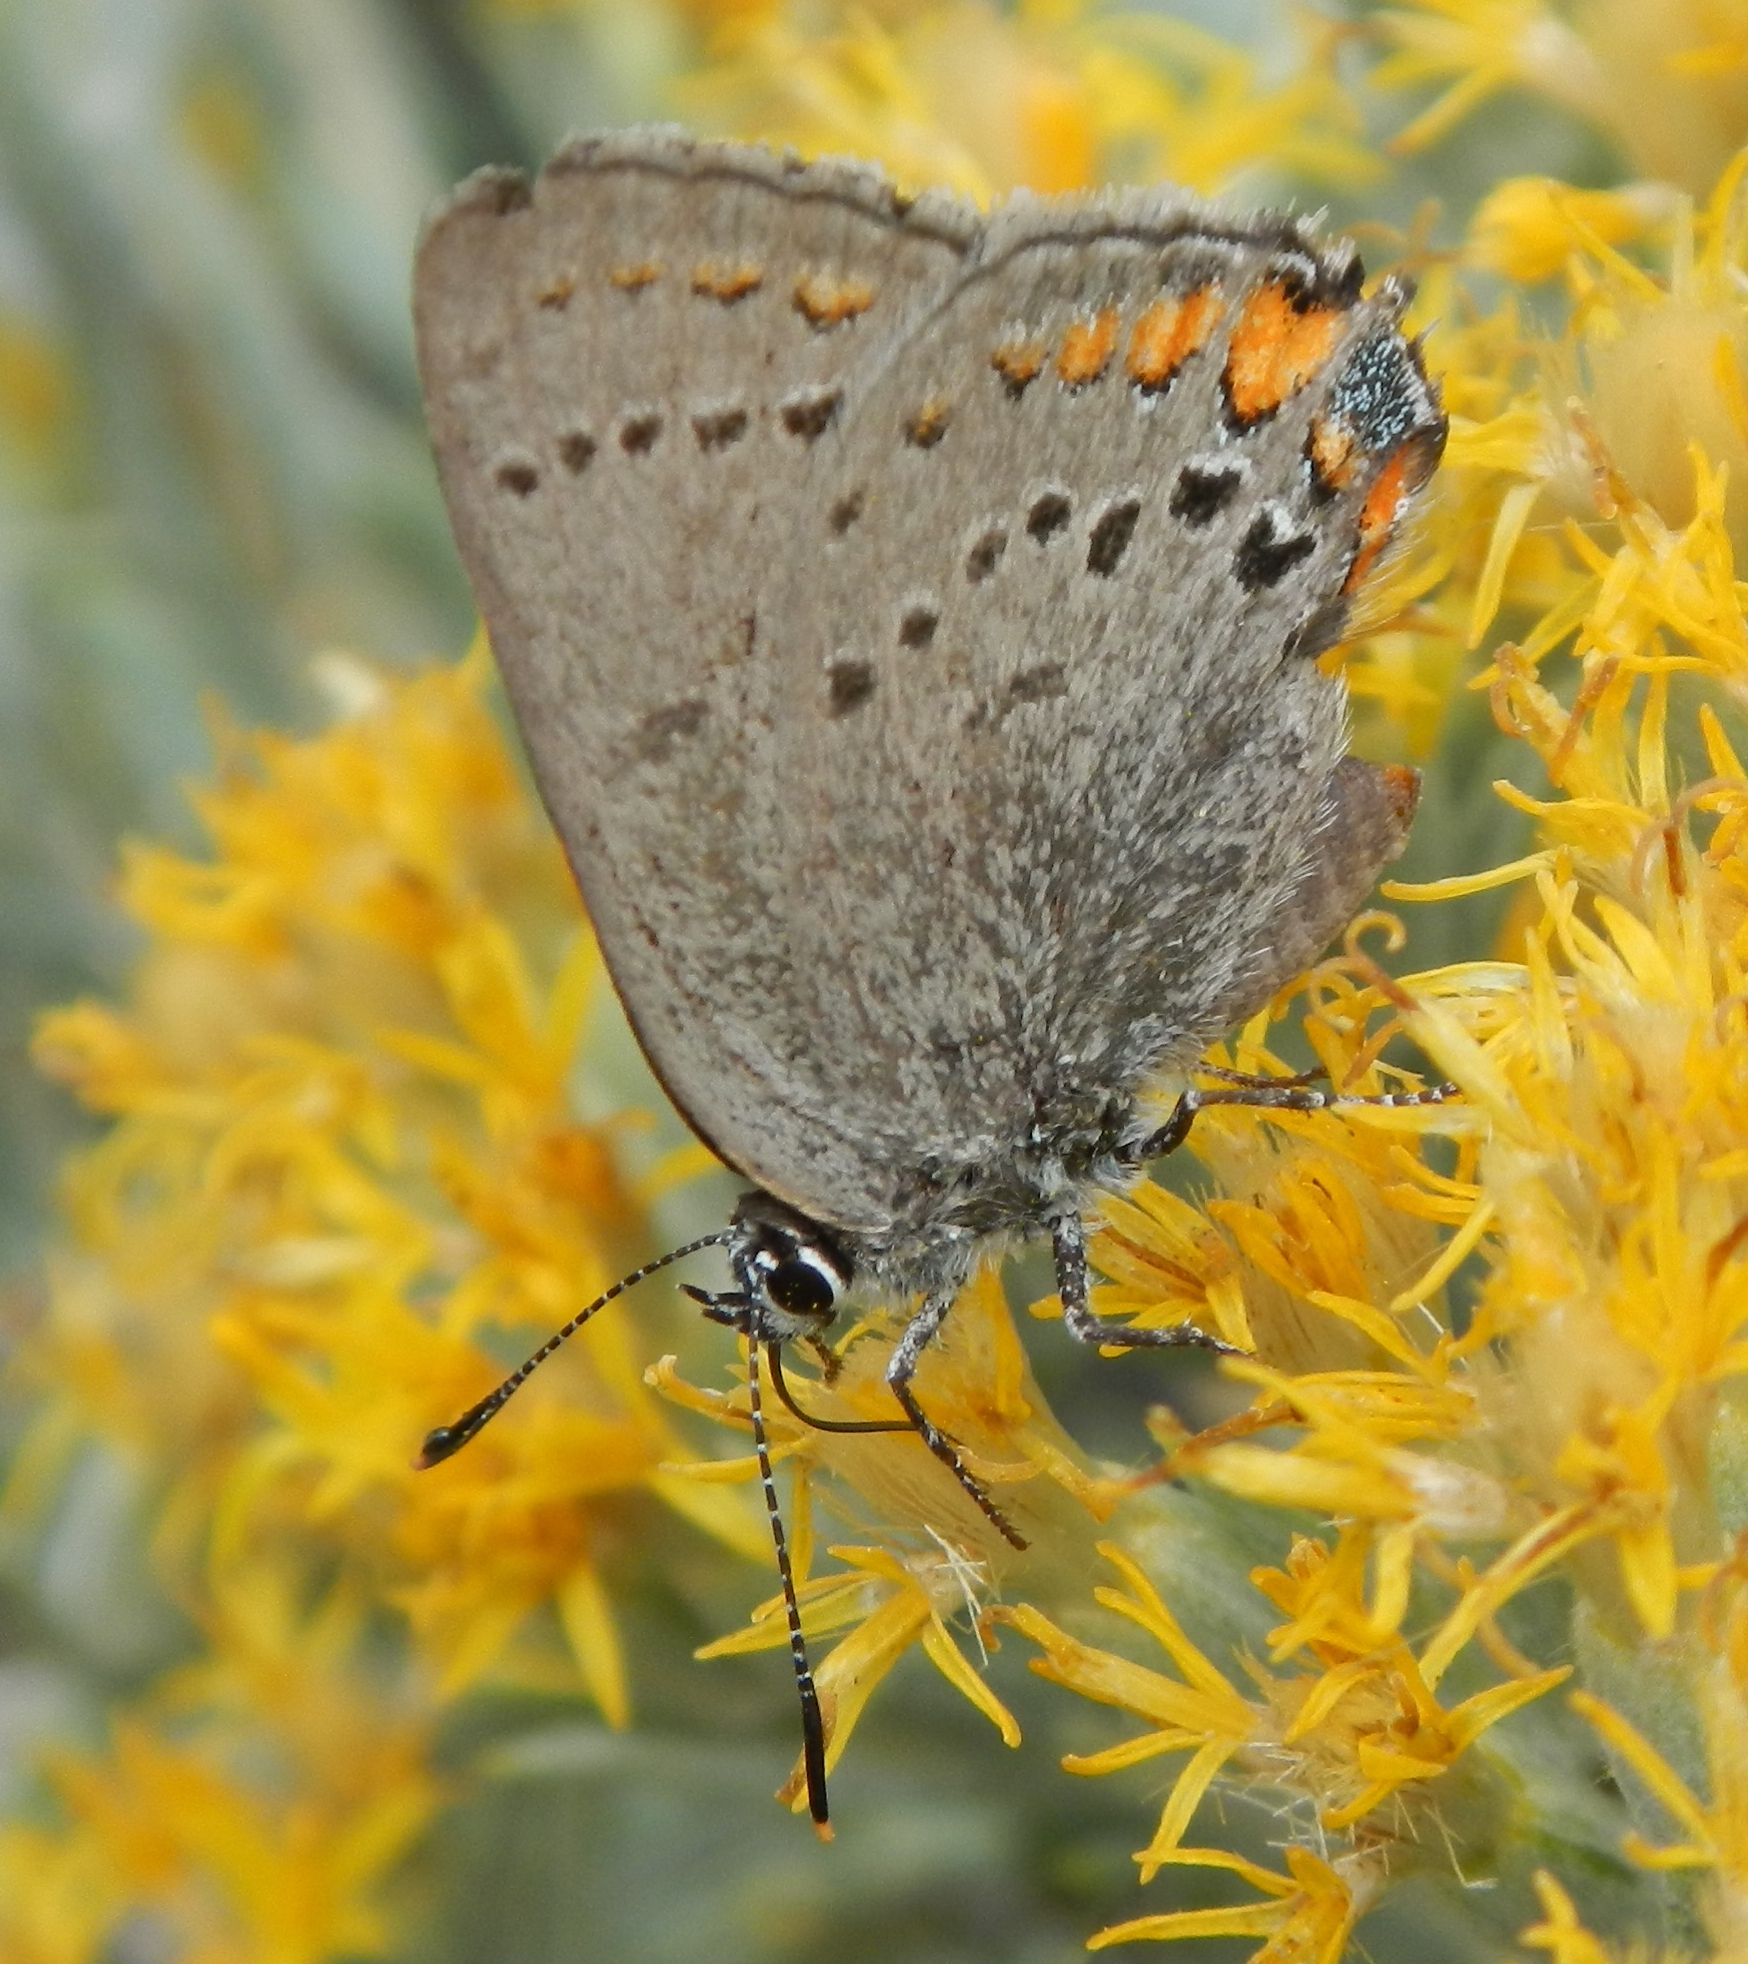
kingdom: Animalia
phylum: Arthropoda
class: Insecta
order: Lepidoptera
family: Lycaenidae
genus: Strymon
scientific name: Strymon acadica
